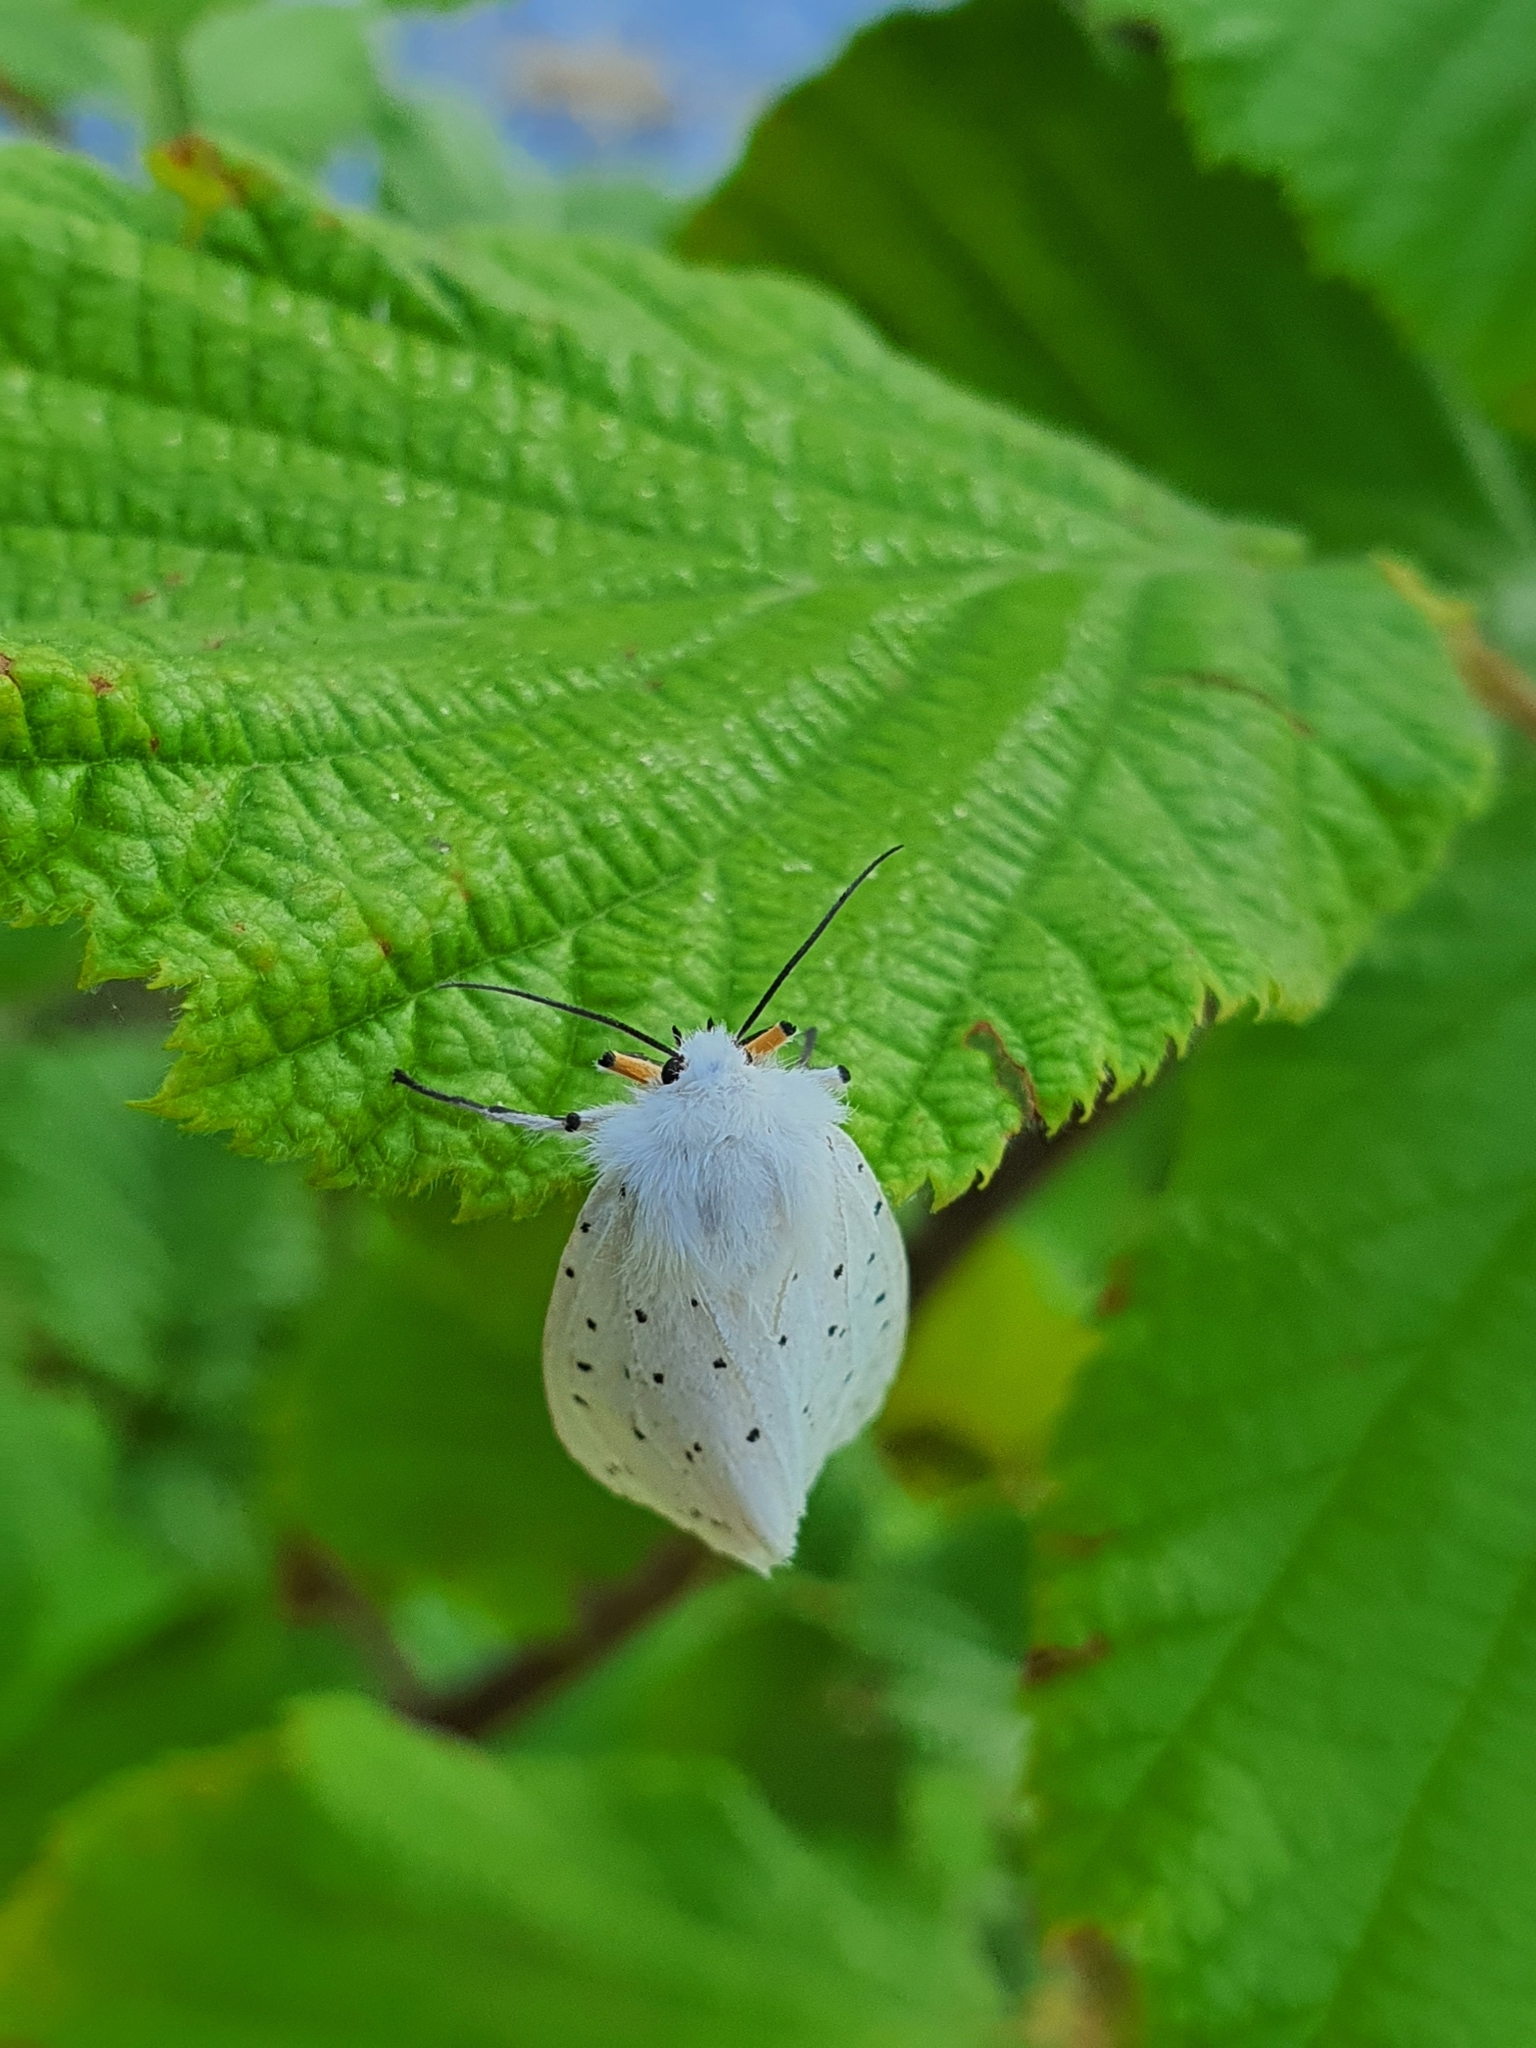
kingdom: Animalia
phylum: Arthropoda
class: Insecta
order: Lepidoptera
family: Erebidae
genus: Spilosoma
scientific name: Spilosoma lubricipeda
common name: White ermine
